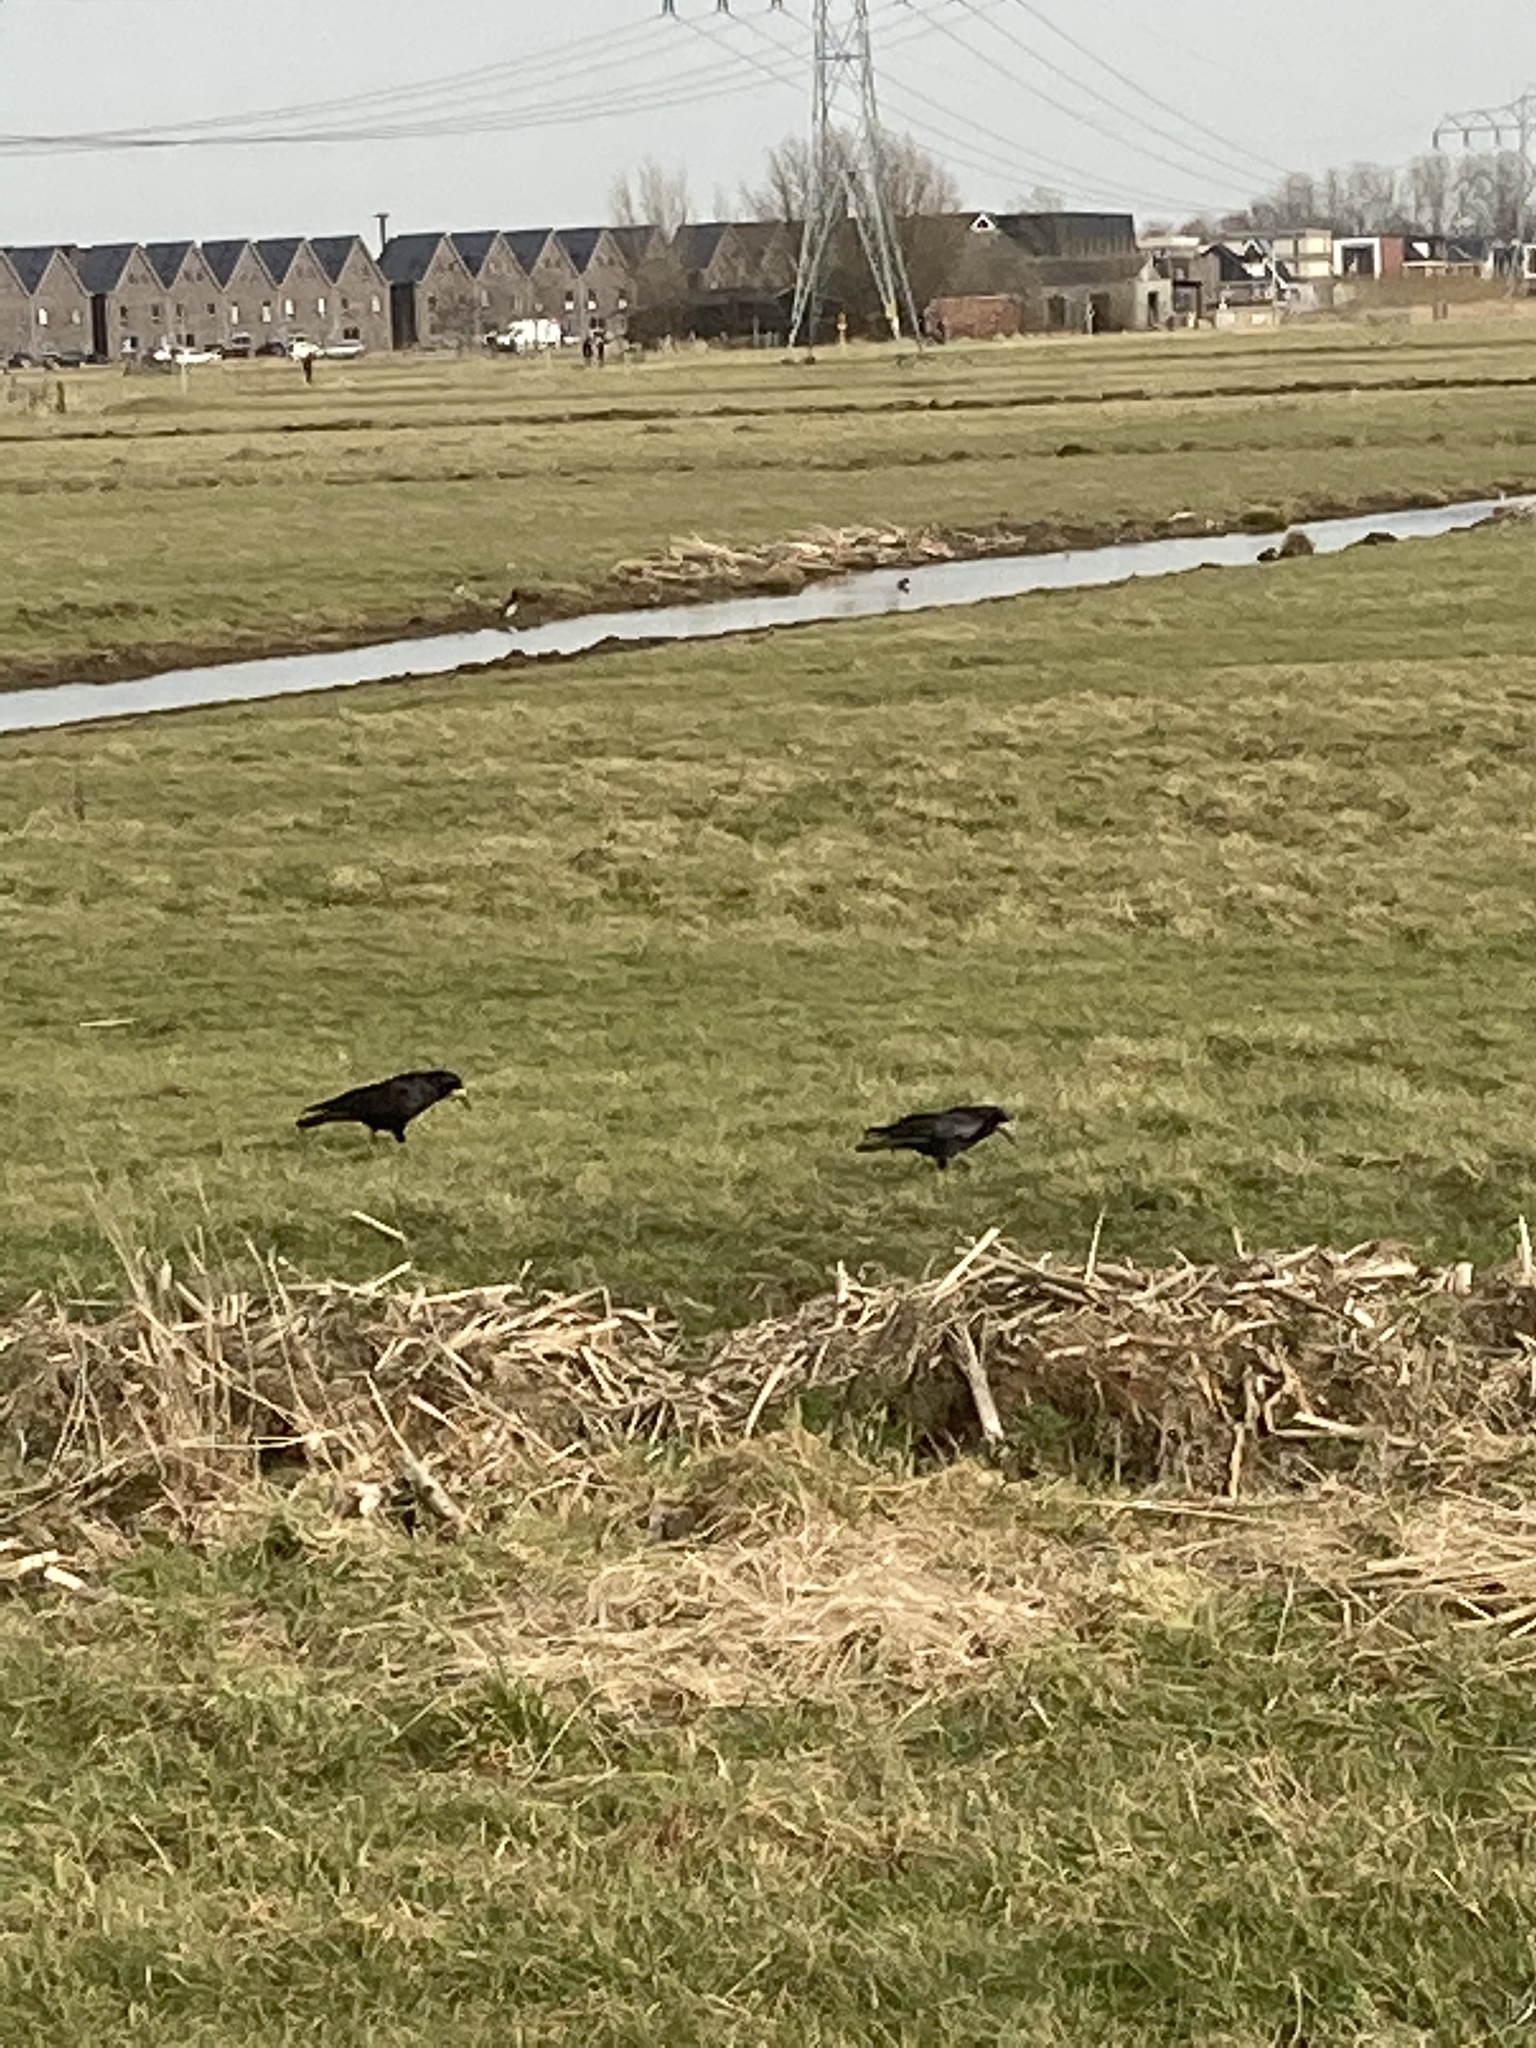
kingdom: Animalia
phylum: Chordata
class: Aves
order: Passeriformes
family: Corvidae
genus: Corvus
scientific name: Corvus frugilegus
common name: Rook
